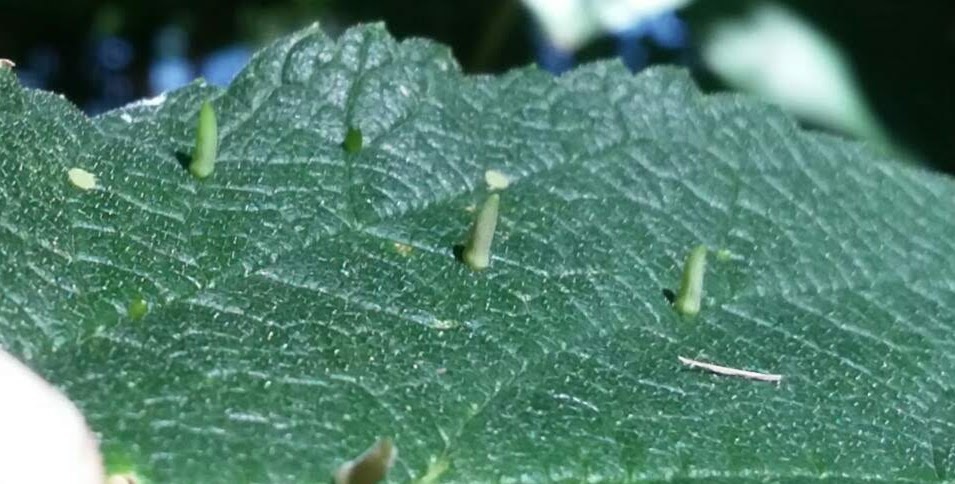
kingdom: Animalia
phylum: Arthropoda
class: Insecta
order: Diptera
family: Cecidomyiidae
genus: Celticecis
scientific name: Celticecis
